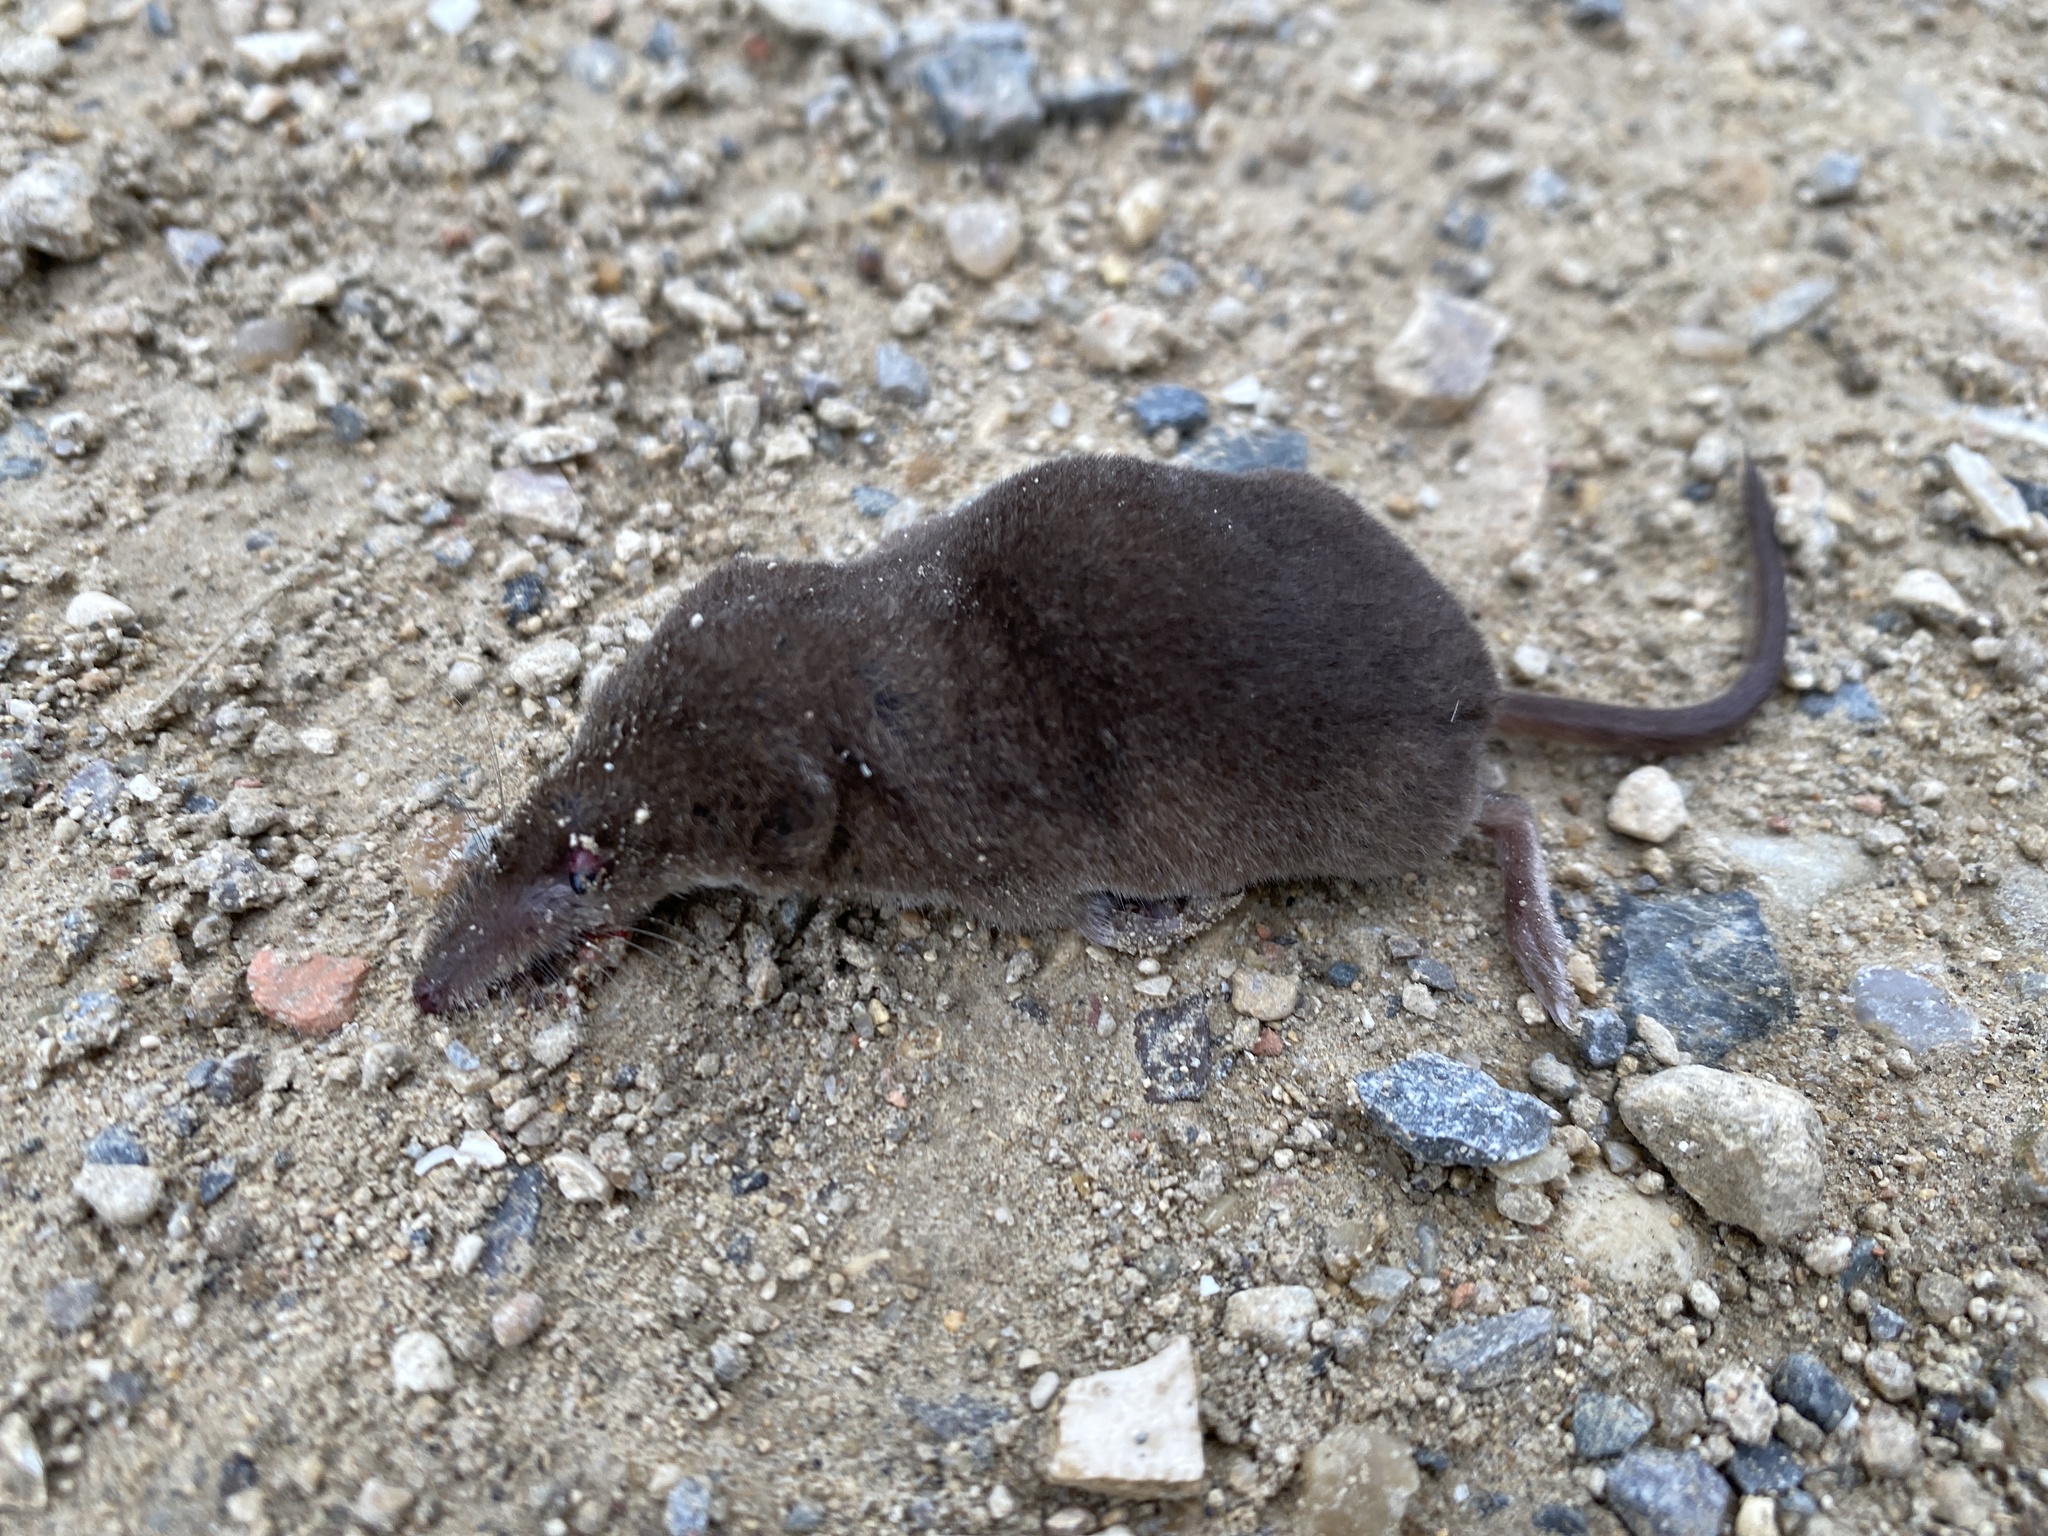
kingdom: Animalia
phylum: Chordata
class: Mammalia
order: Soricomorpha
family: Soricidae
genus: Sorex
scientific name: Sorex araneus
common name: Common shrew
